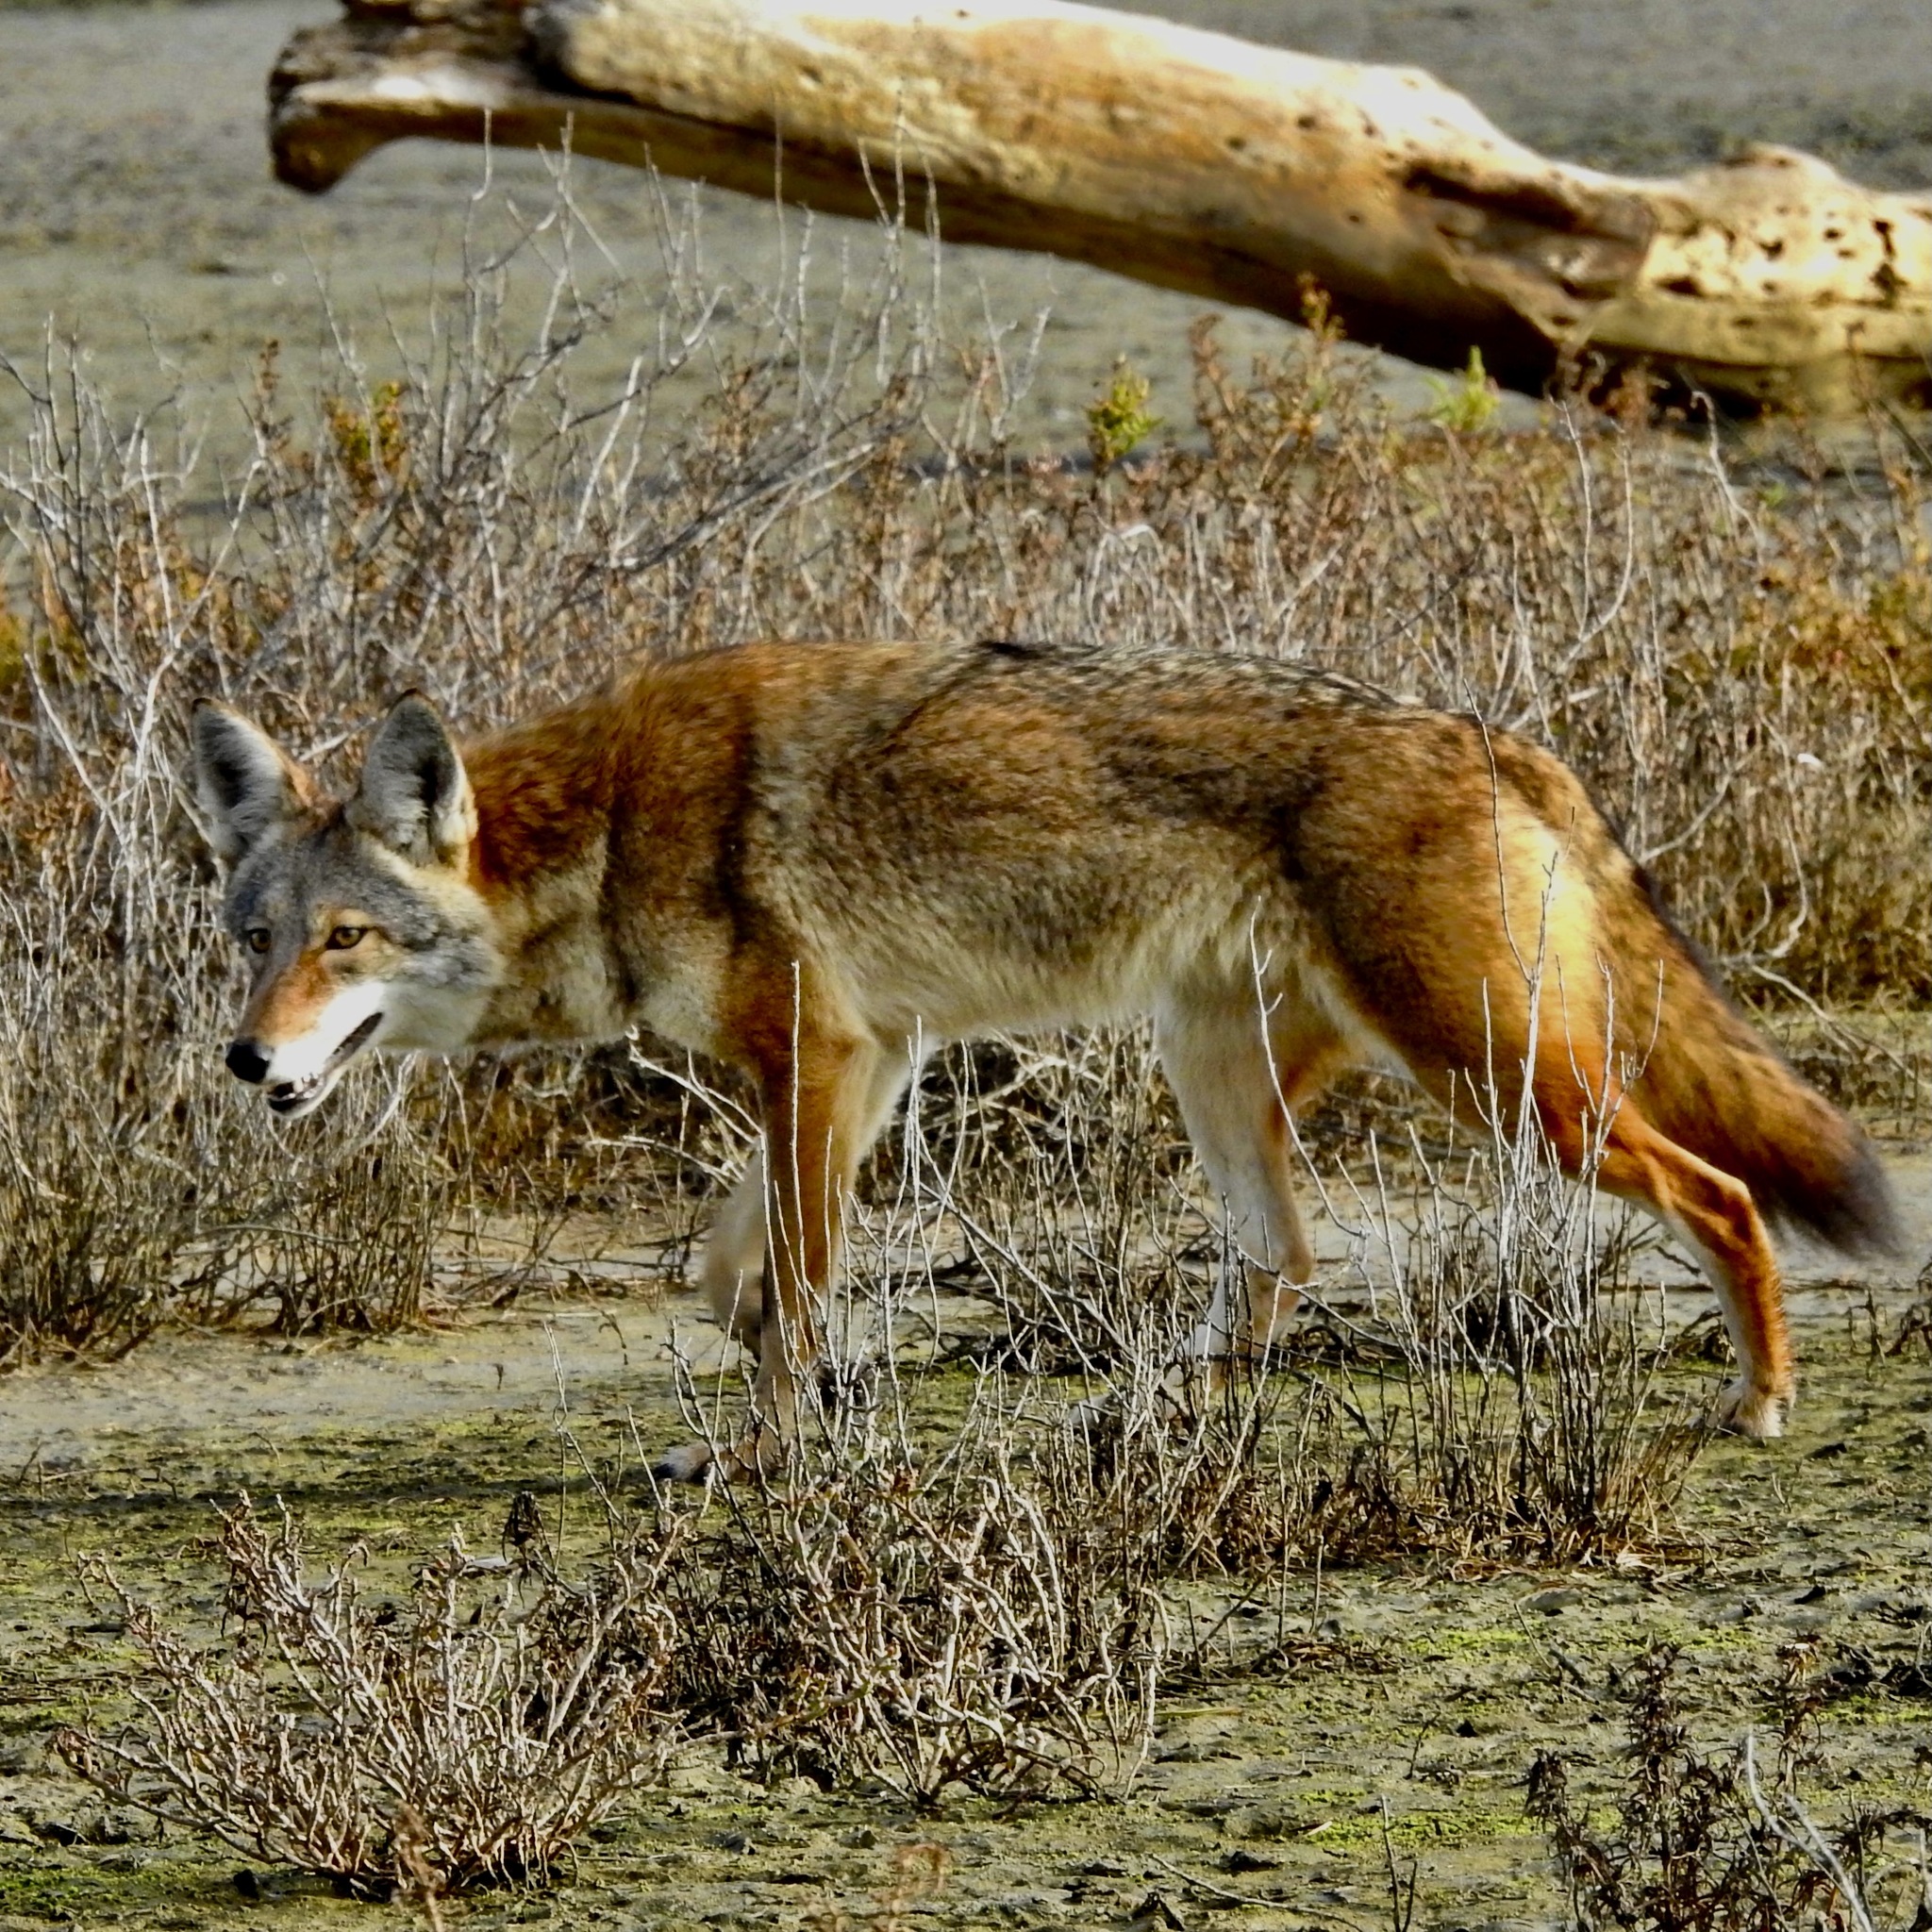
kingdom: Animalia
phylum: Chordata
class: Mammalia
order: Carnivora
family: Canidae
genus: Canis
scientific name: Canis latrans
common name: Coyote
